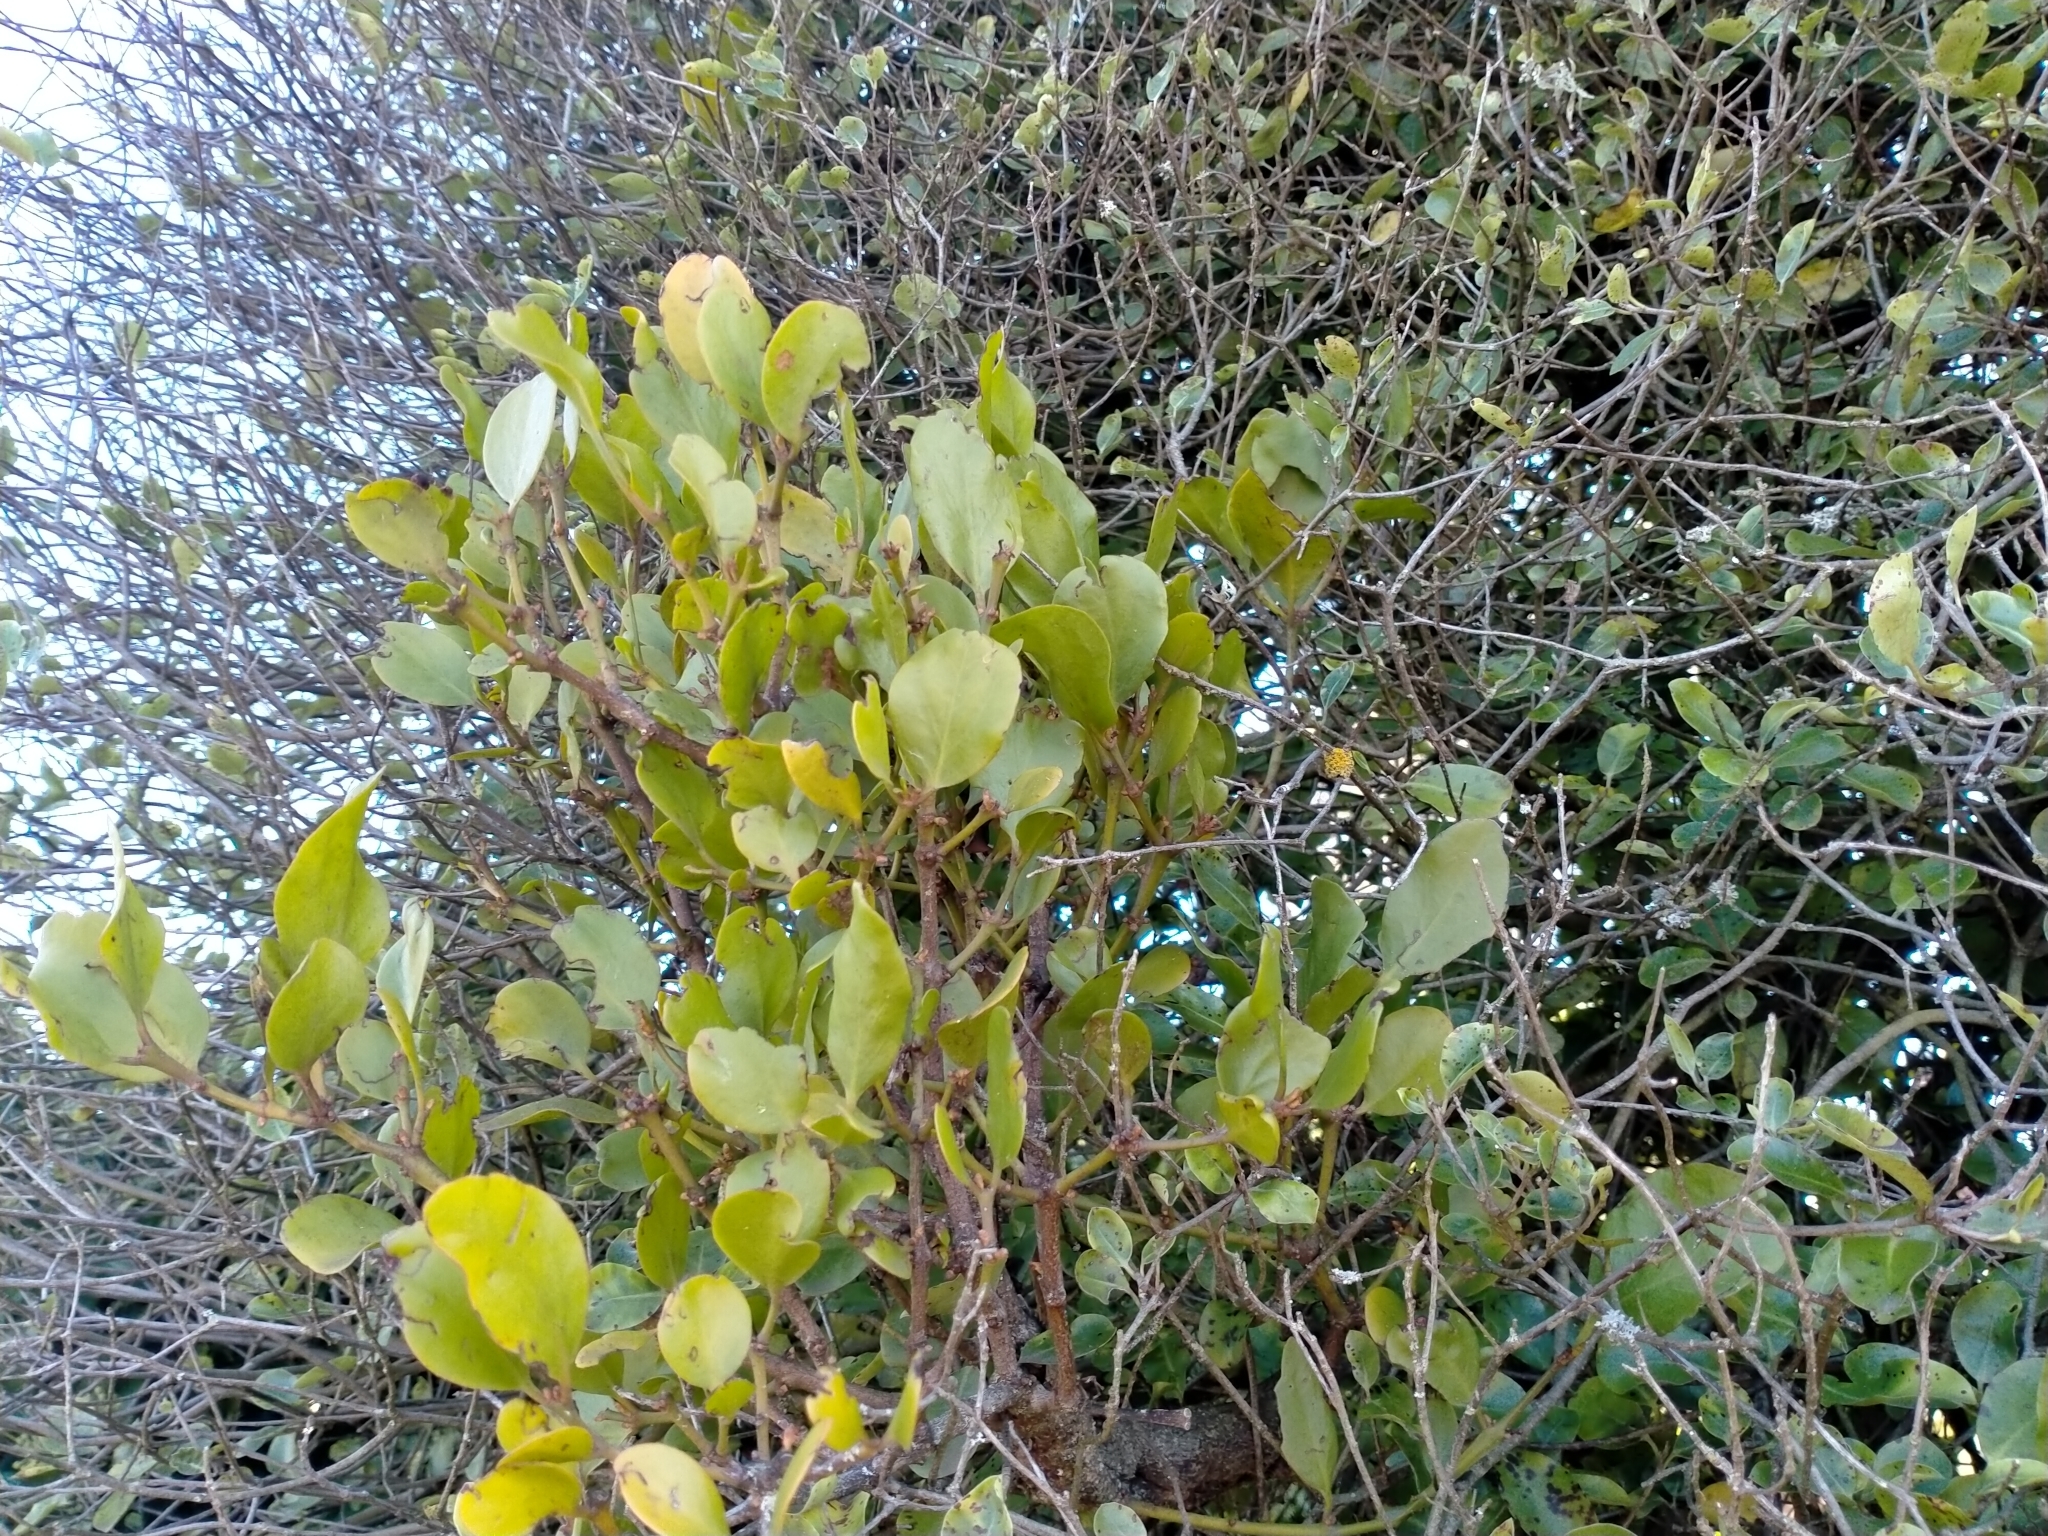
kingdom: Plantae
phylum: Tracheophyta
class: Magnoliopsida
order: Santalales
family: Loranthaceae
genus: Ileostylus
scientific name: Ileostylus micranthus
